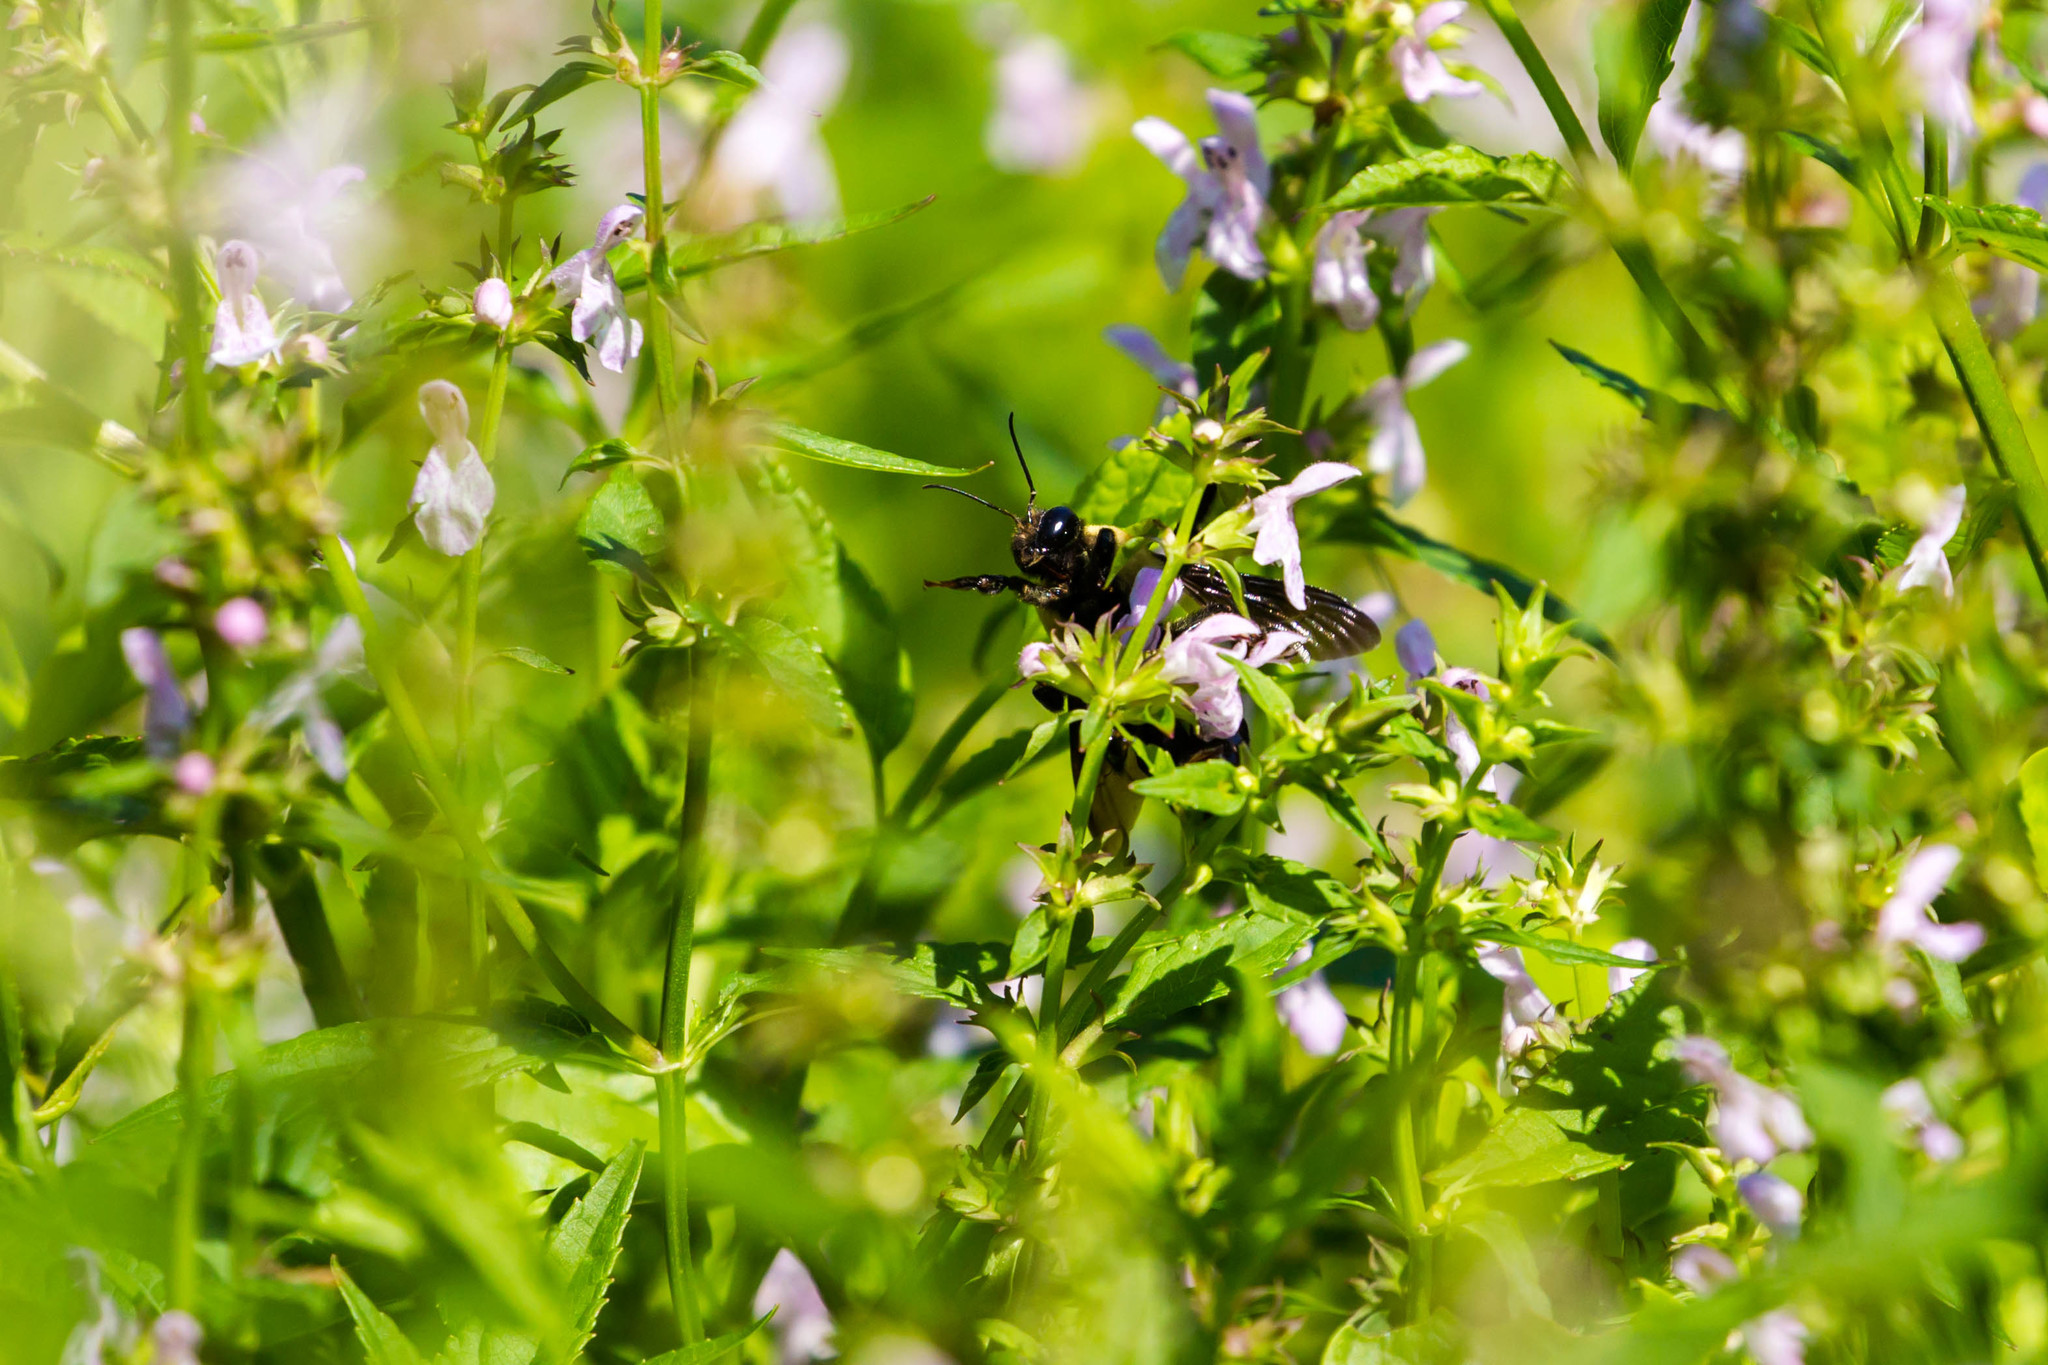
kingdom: Animalia
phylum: Arthropoda
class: Insecta
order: Hymenoptera
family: Apidae
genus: Bombus
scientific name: Bombus fraternus
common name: Southern plains bumble bee
